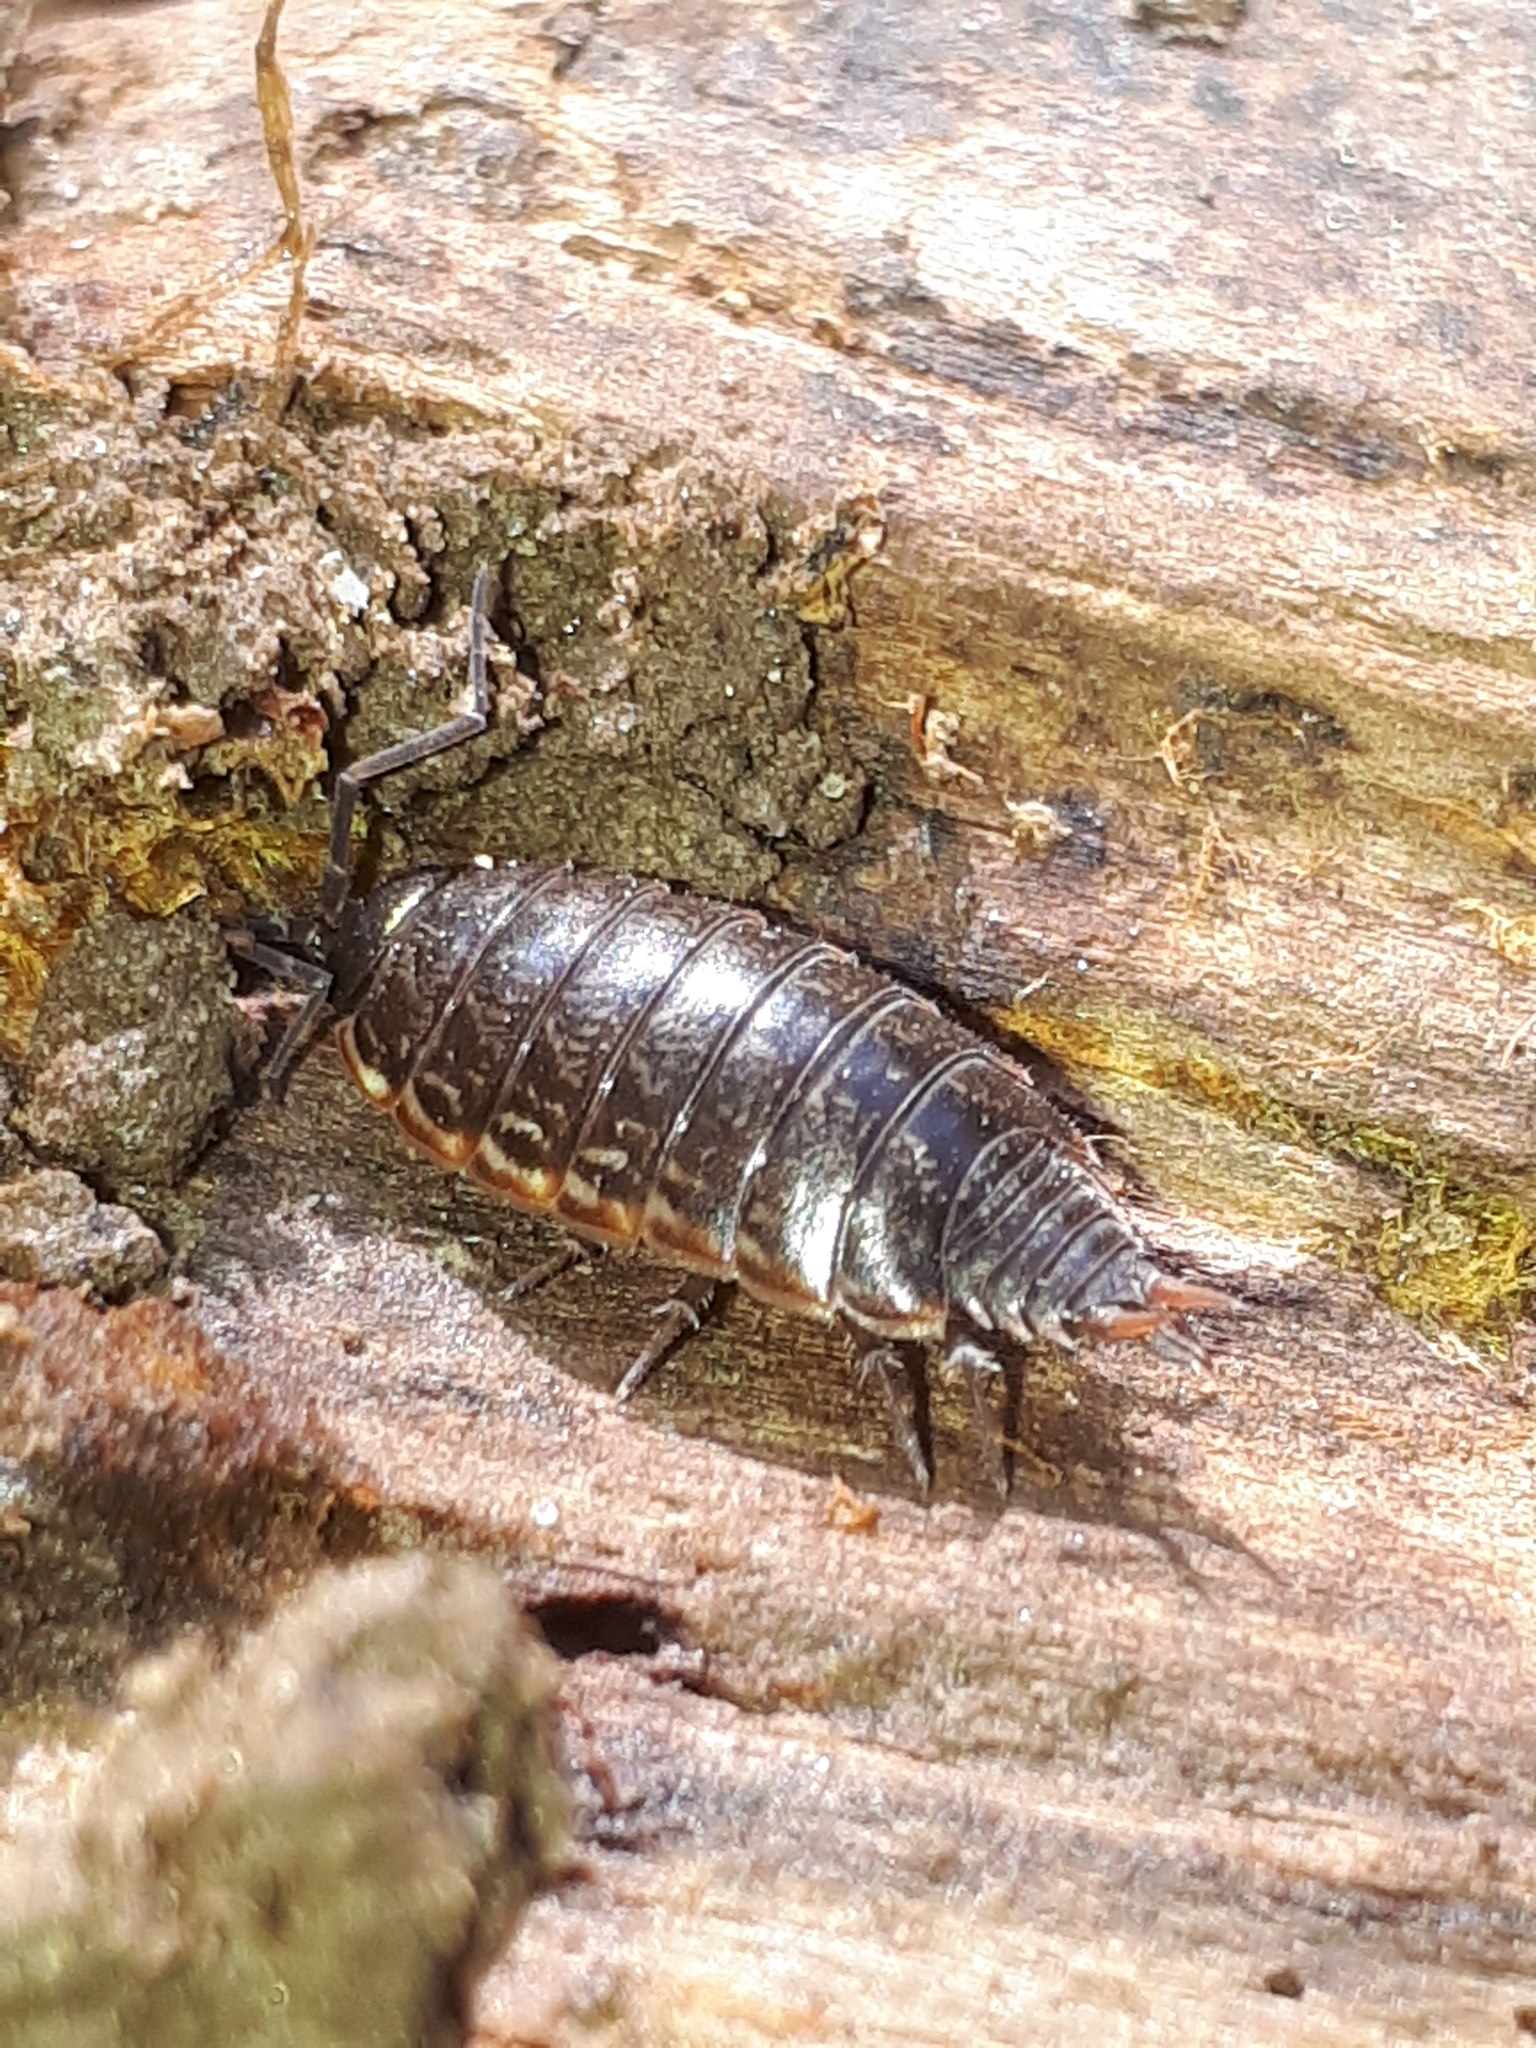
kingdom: Animalia
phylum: Arthropoda
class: Malacostraca
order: Isopoda
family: Philosciidae
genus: Philoscia
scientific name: Philoscia muscorum
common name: Common striped woodlouse
